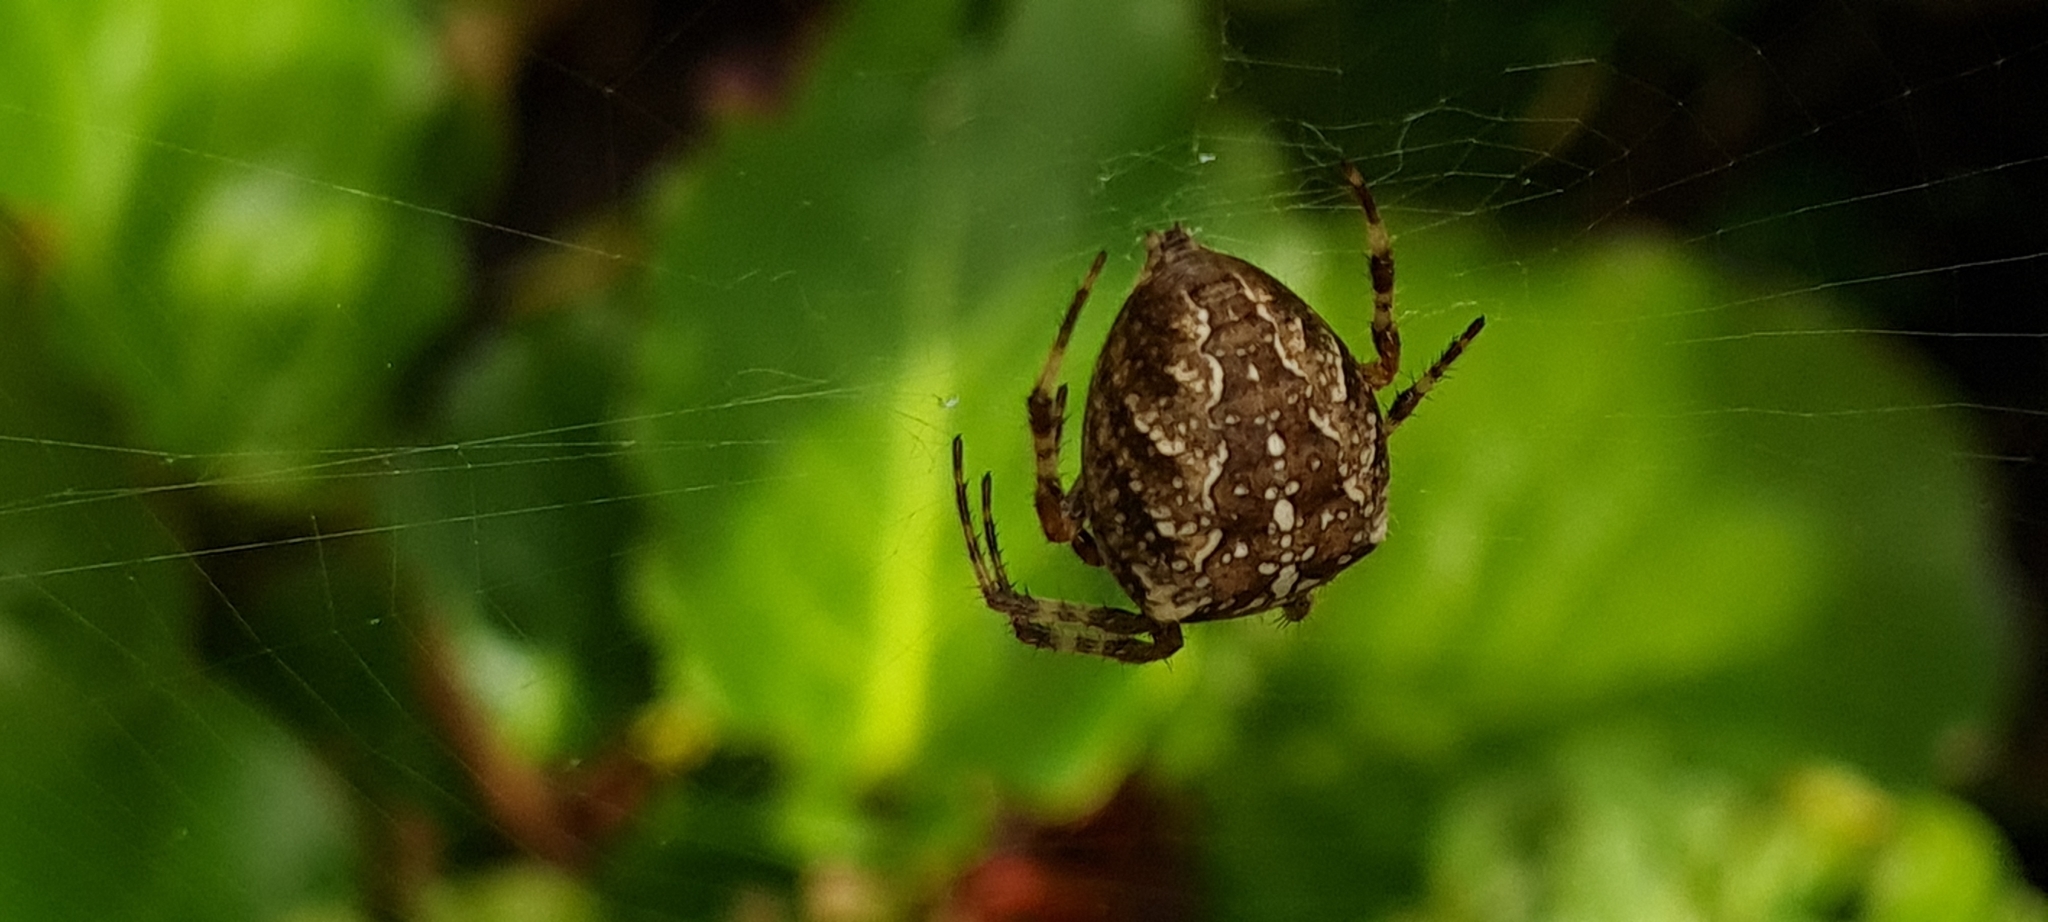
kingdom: Animalia
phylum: Arthropoda
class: Arachnida
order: Araneae
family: Araneidae
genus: Araneus
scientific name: Araneus diadematus
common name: Cross orbweaver
